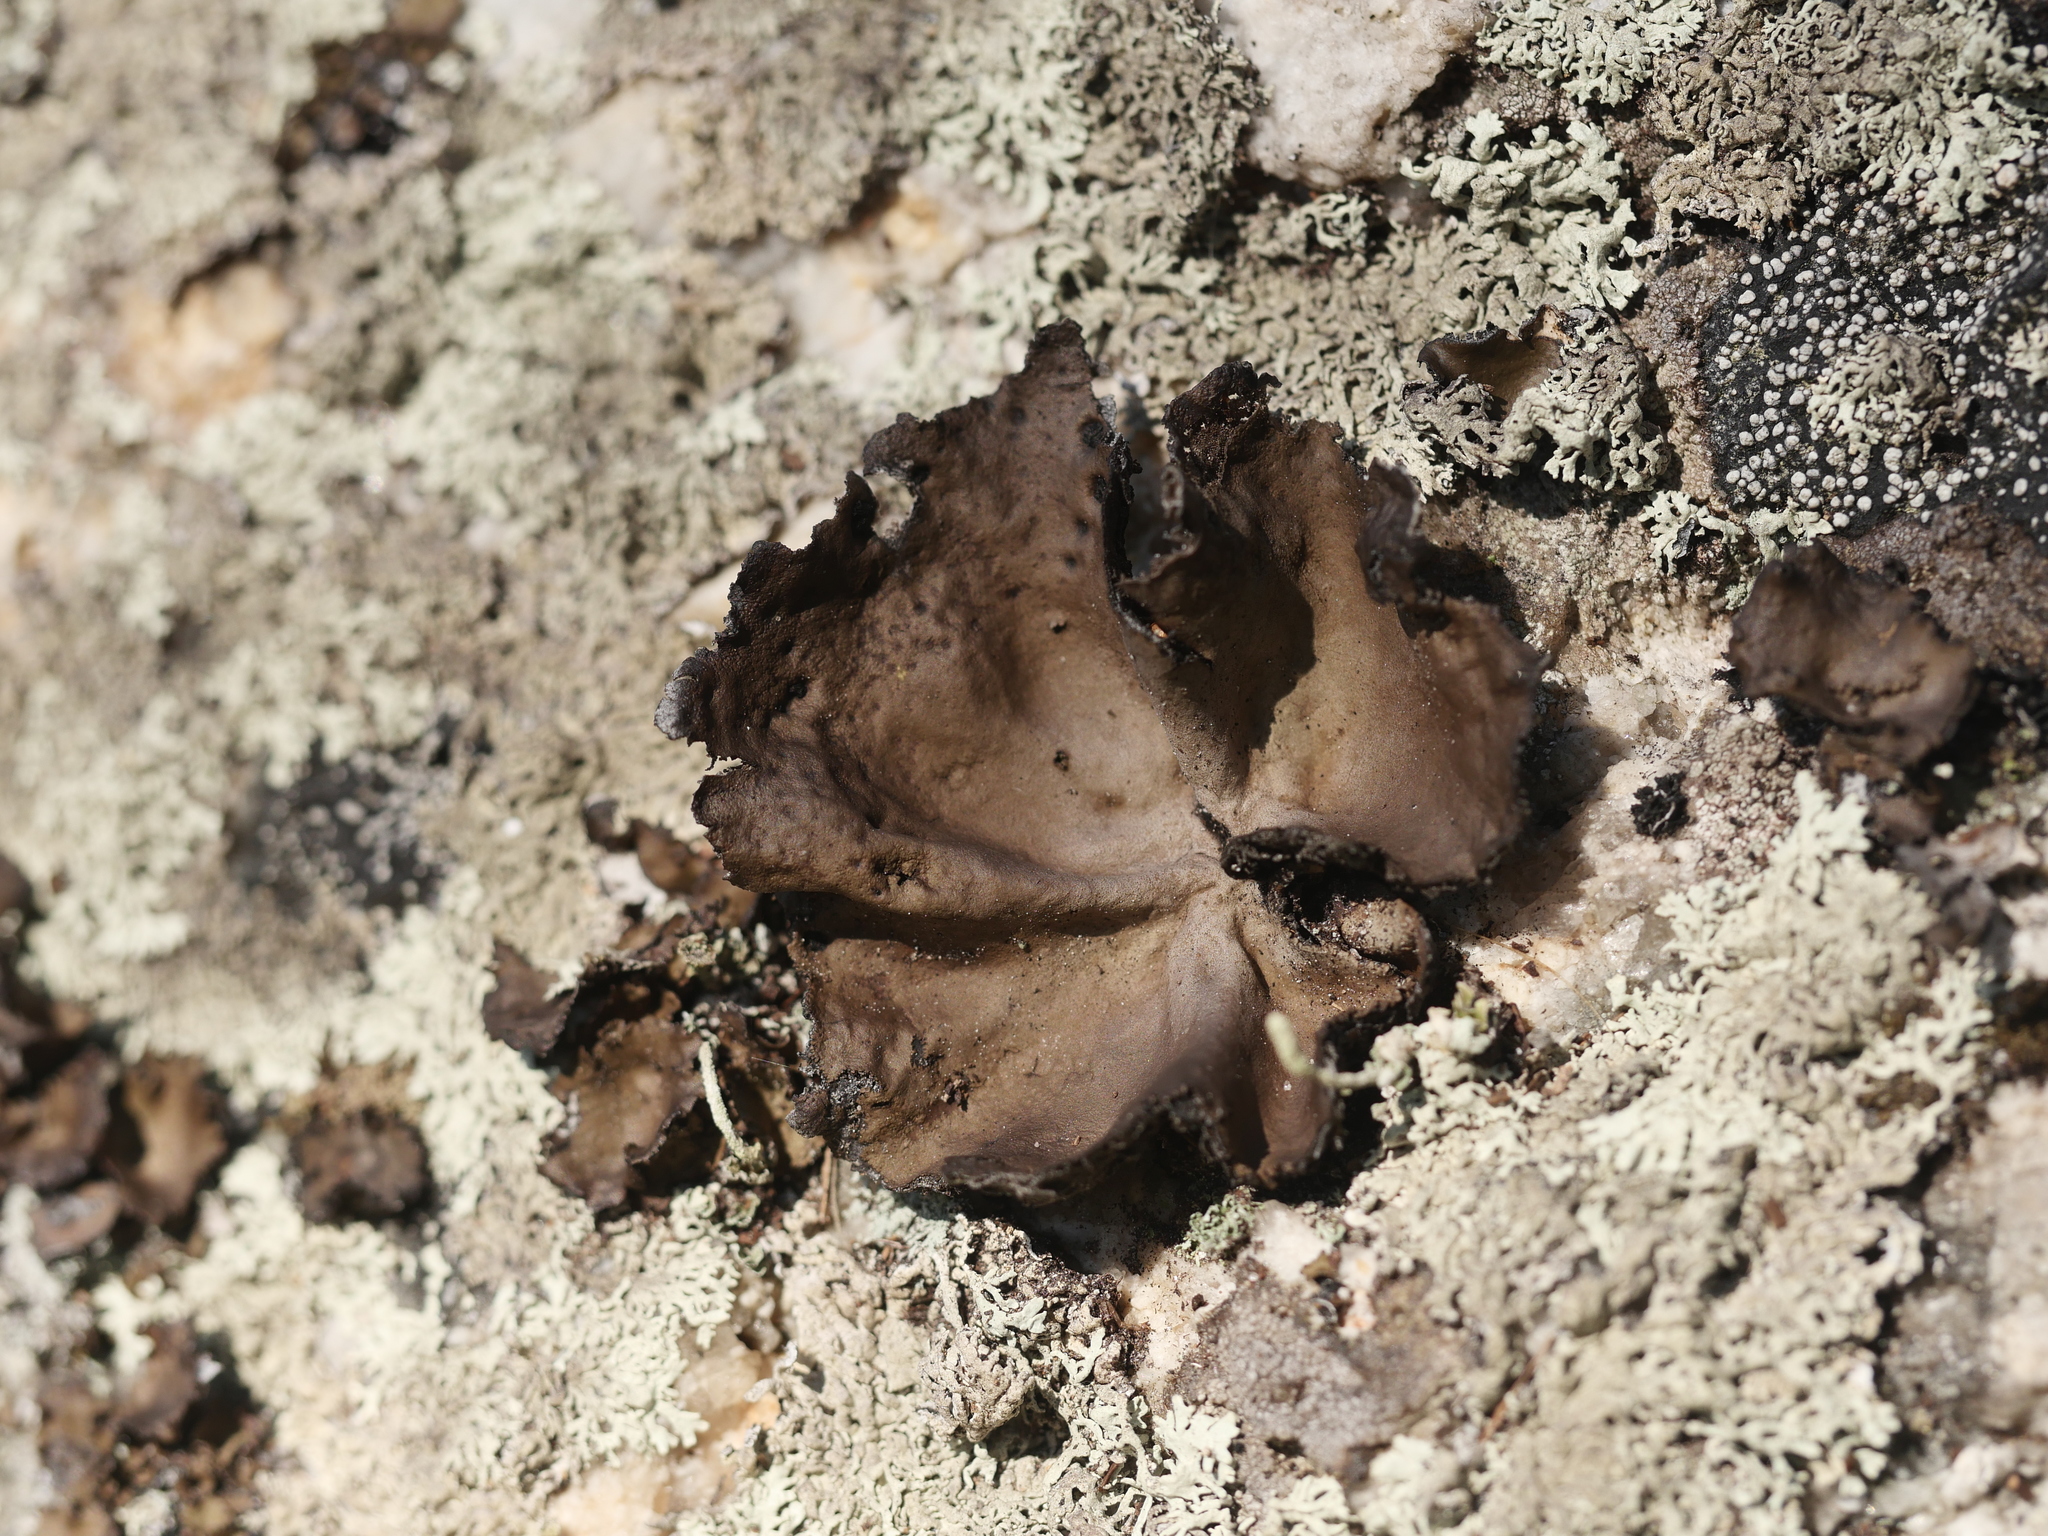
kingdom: Fungi
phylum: Ascomycota
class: Lecanoromycetes
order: Umbilicariales
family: Umbilicariaceae
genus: Umbilicaria
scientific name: Umbilicaria muhlenbergii
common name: Lesser rocktripe
